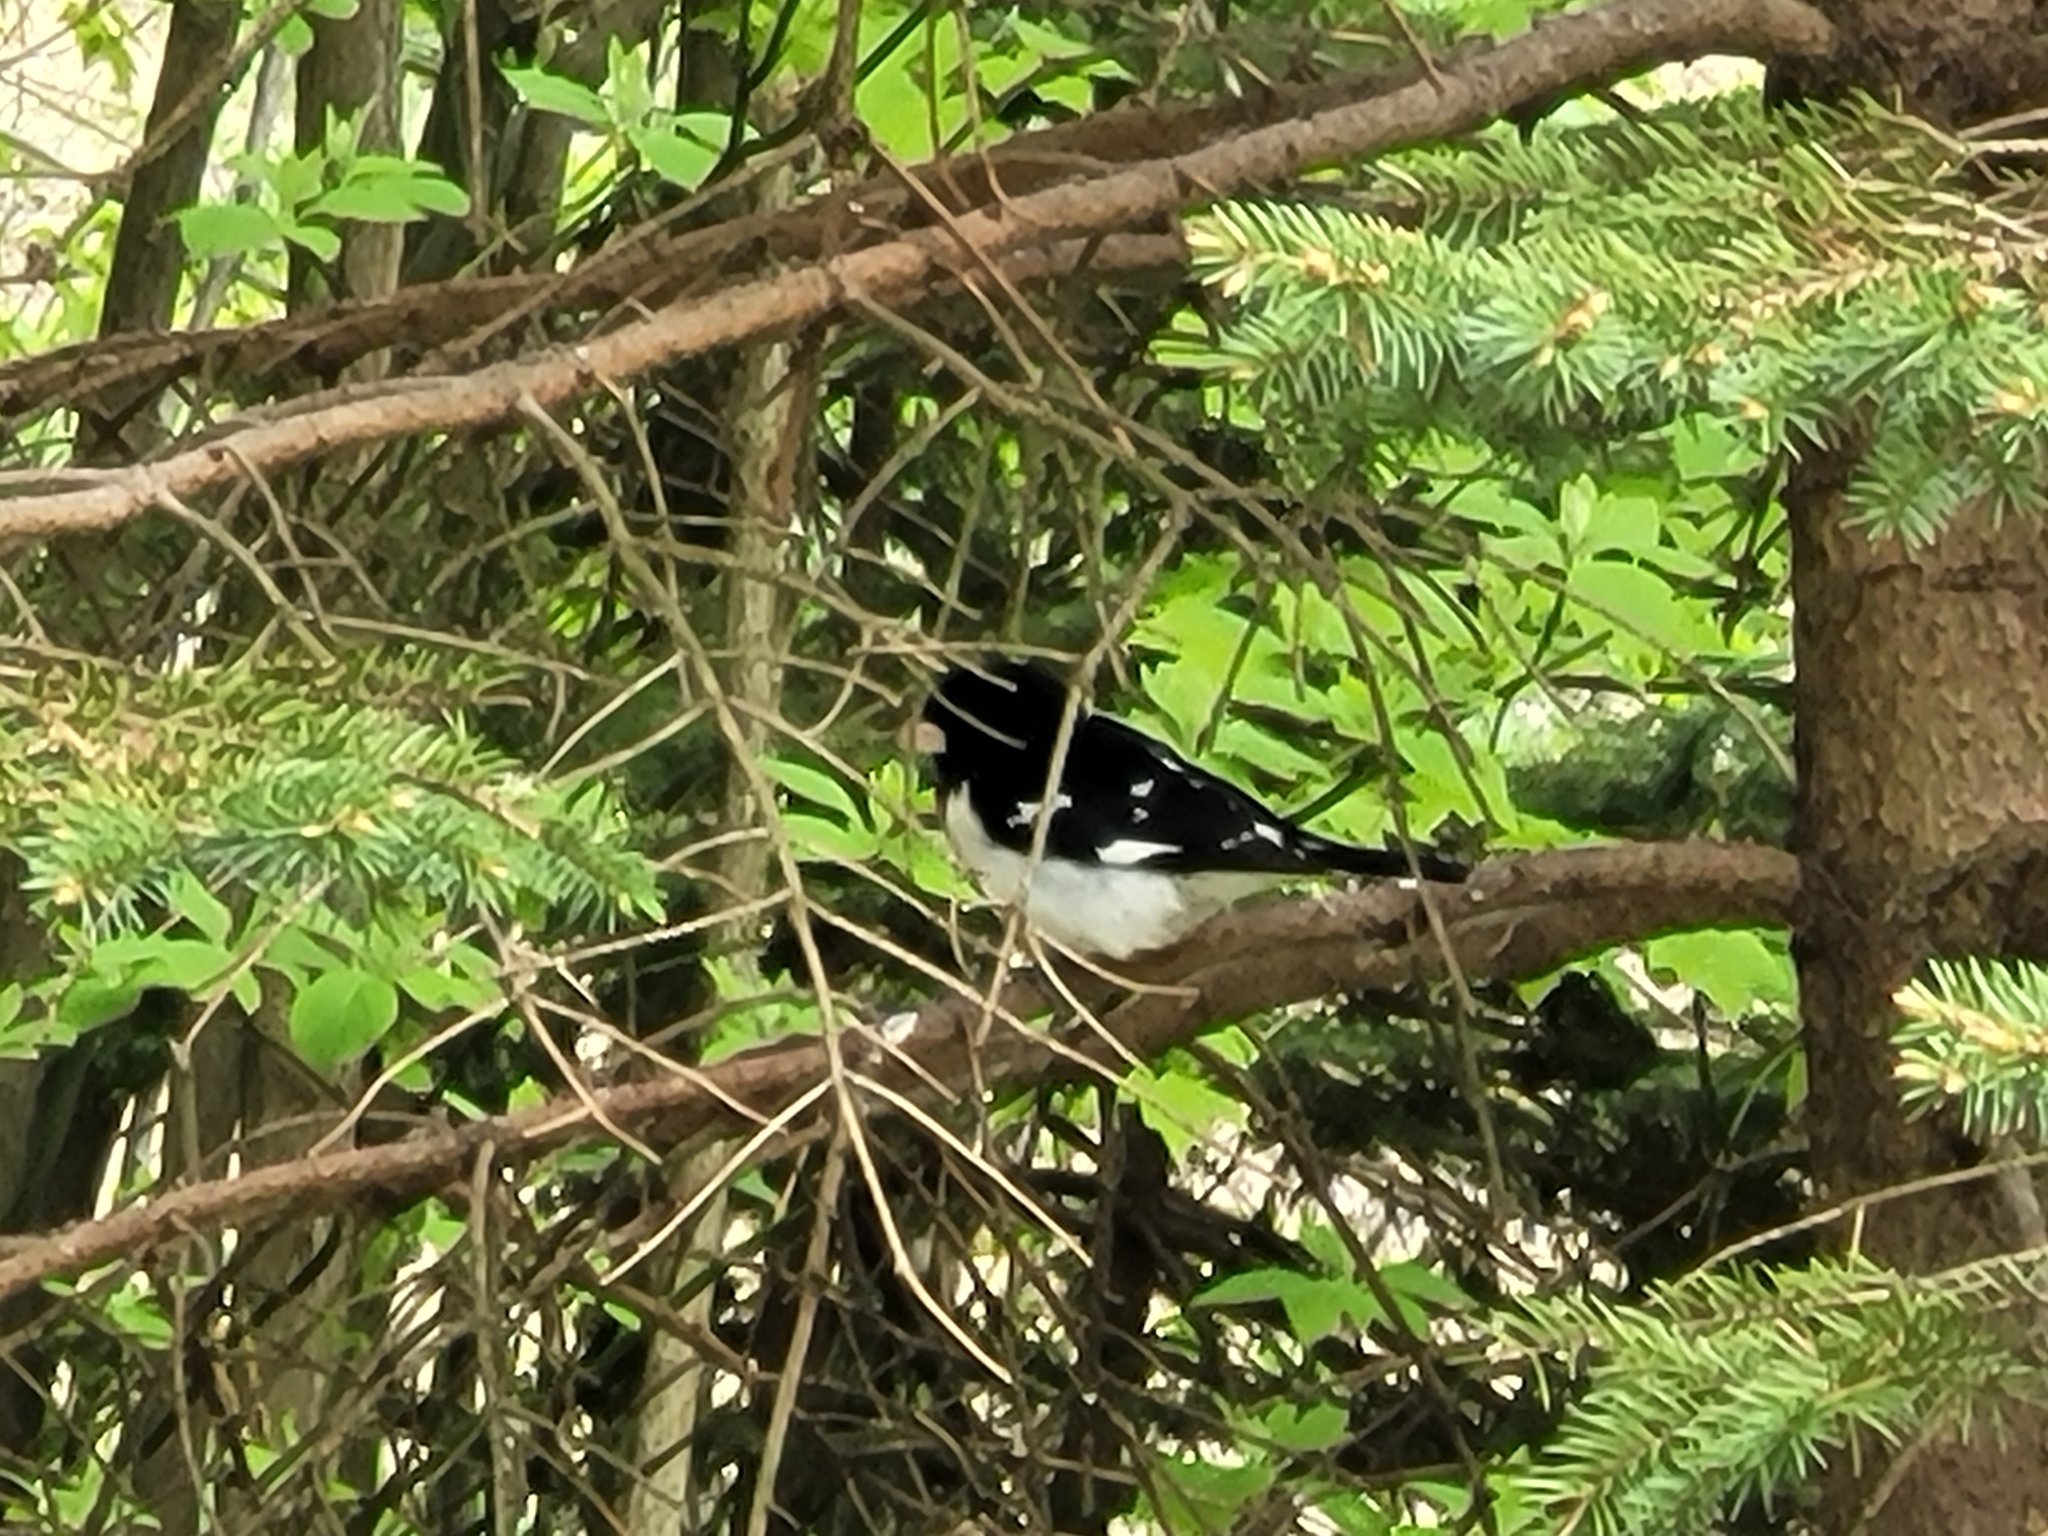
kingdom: Animalia
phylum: Chordata
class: Aves
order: Passeriformes
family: Cardinalidae
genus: Pheucticus
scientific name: Pheucticus ludovicianus
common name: Rose-breasted grosbeak
